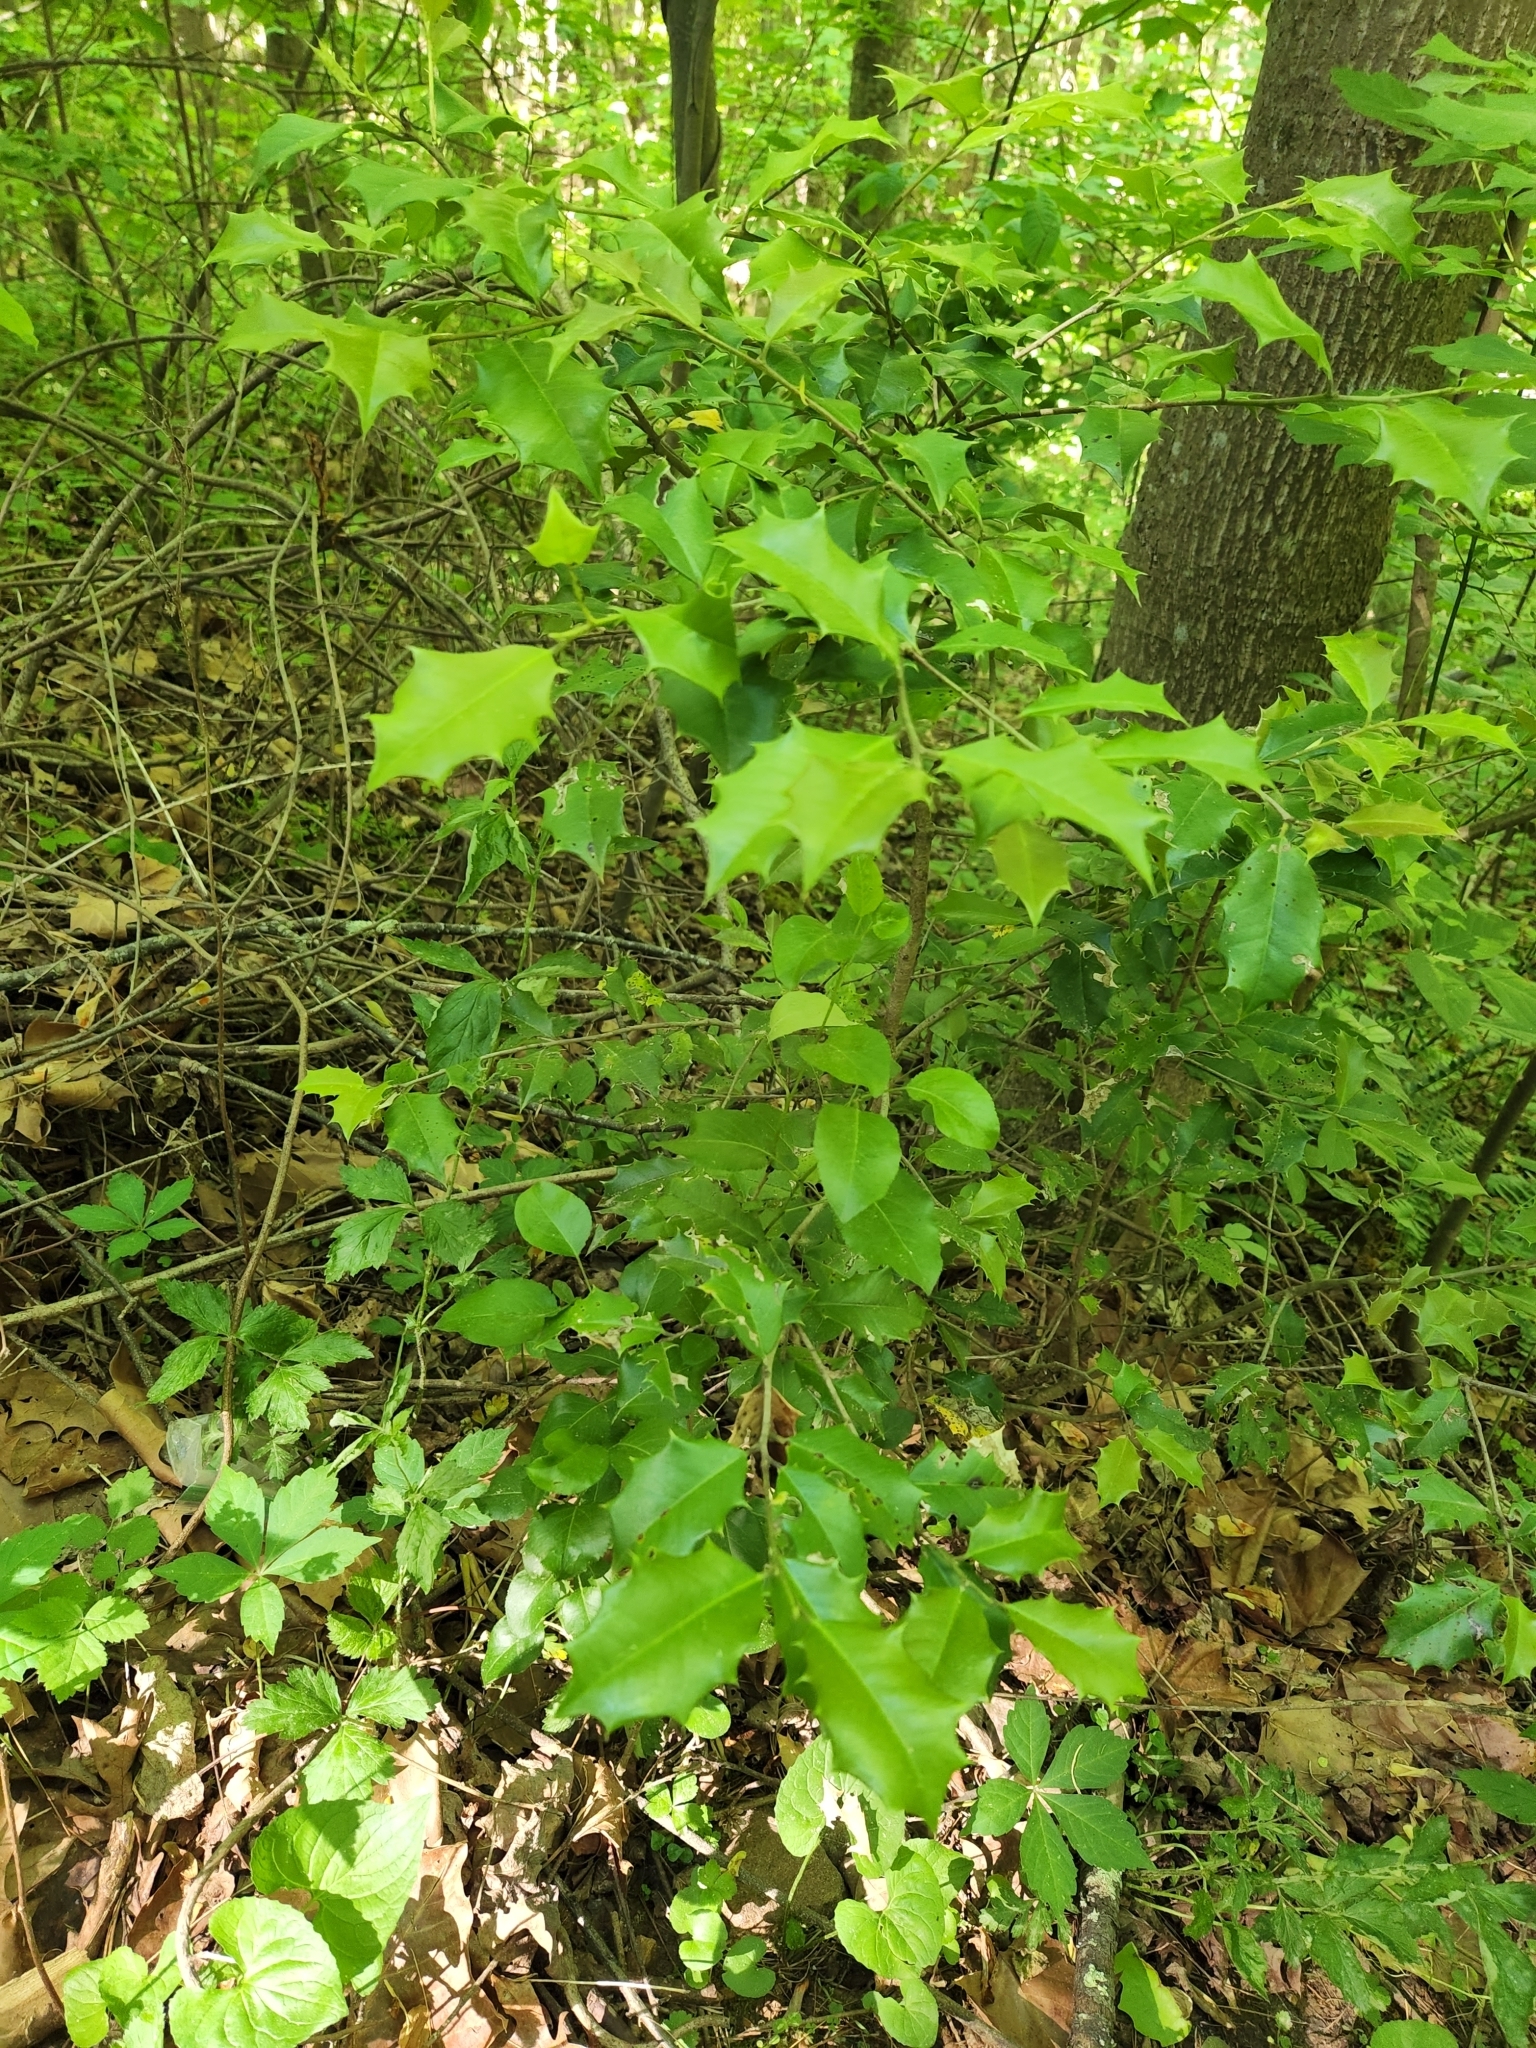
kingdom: Plantae
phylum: Tracheophyta
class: Magnoliopsida
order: Aquifoliales
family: Aquifoliaceae
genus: Ilex
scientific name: Ilex opaca
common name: American holly
